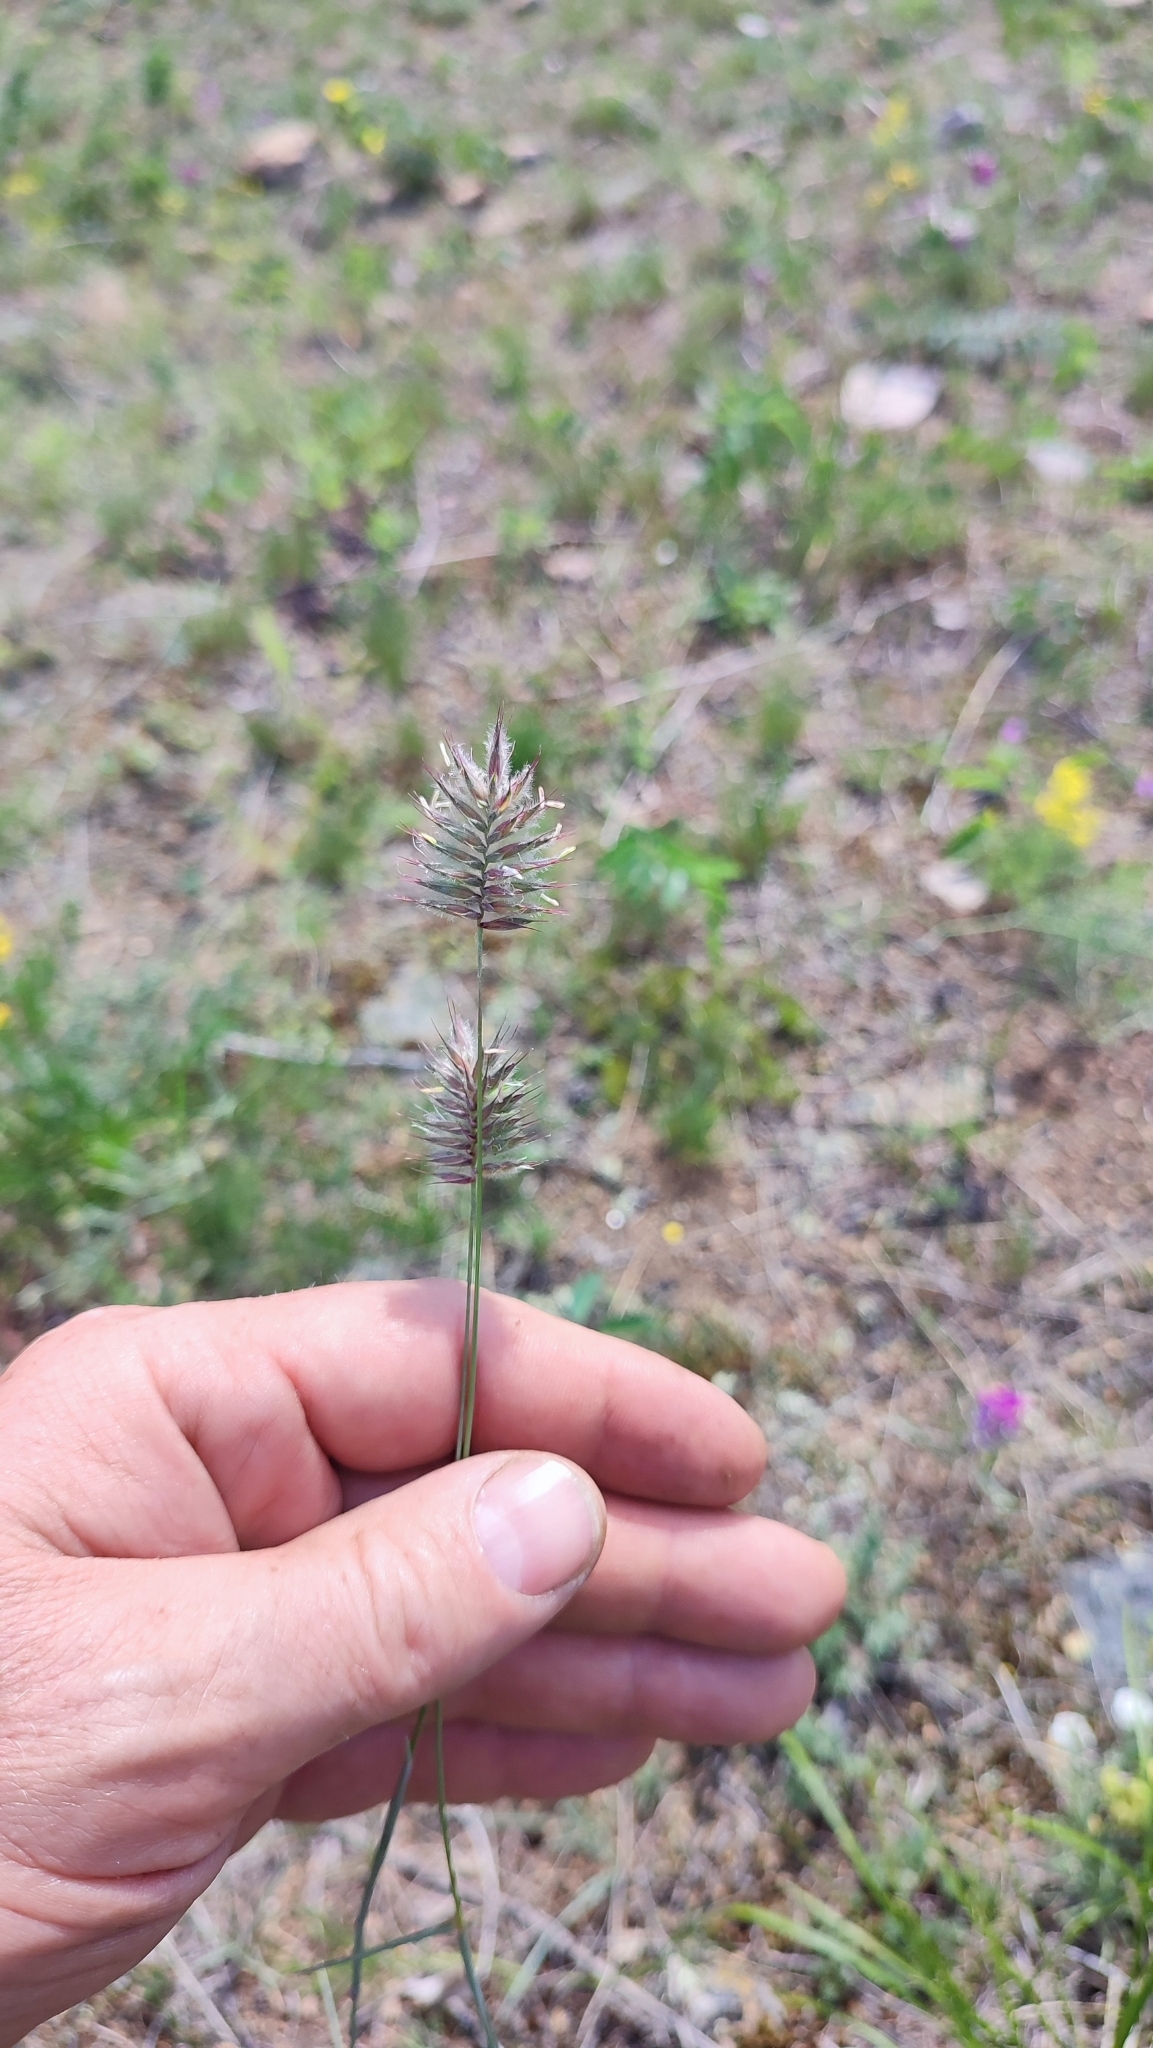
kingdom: Plantae
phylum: Tracheophyta
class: Liliopsida
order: Poales
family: Poaceae
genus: Agropyron
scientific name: Agropyron cristatum
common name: Crested wheatgrass
